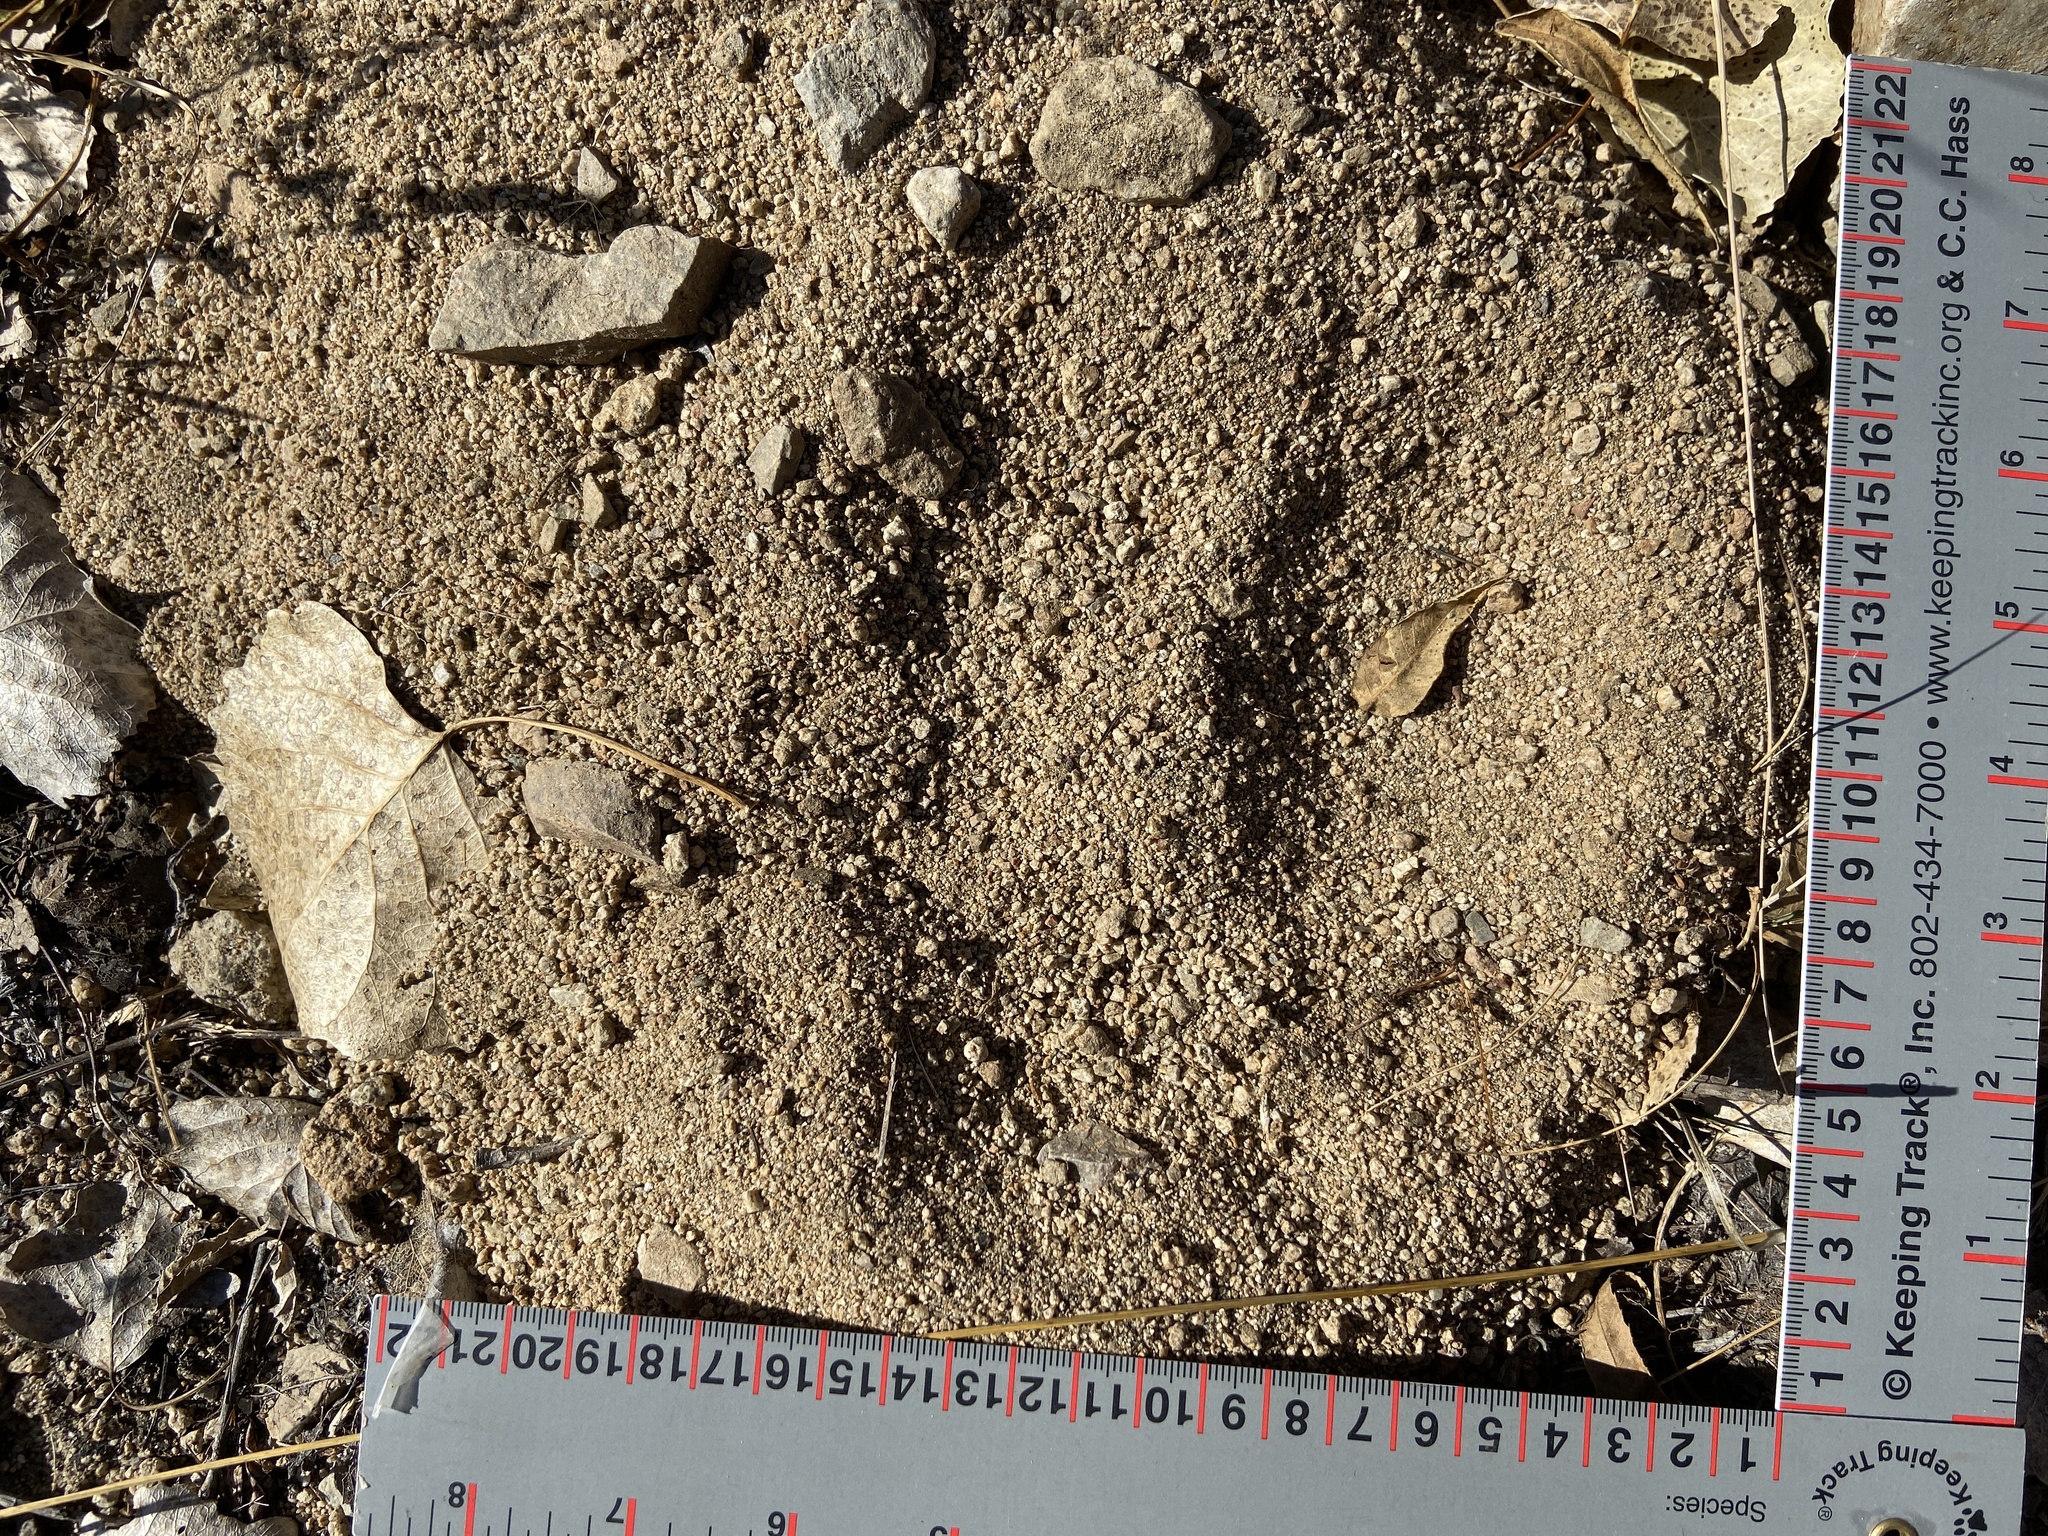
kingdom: Animalia
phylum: Chordata
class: Mammalia
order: Carnivora
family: Ursidae
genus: Ursus
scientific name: Ursus americanus
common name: American black bear
